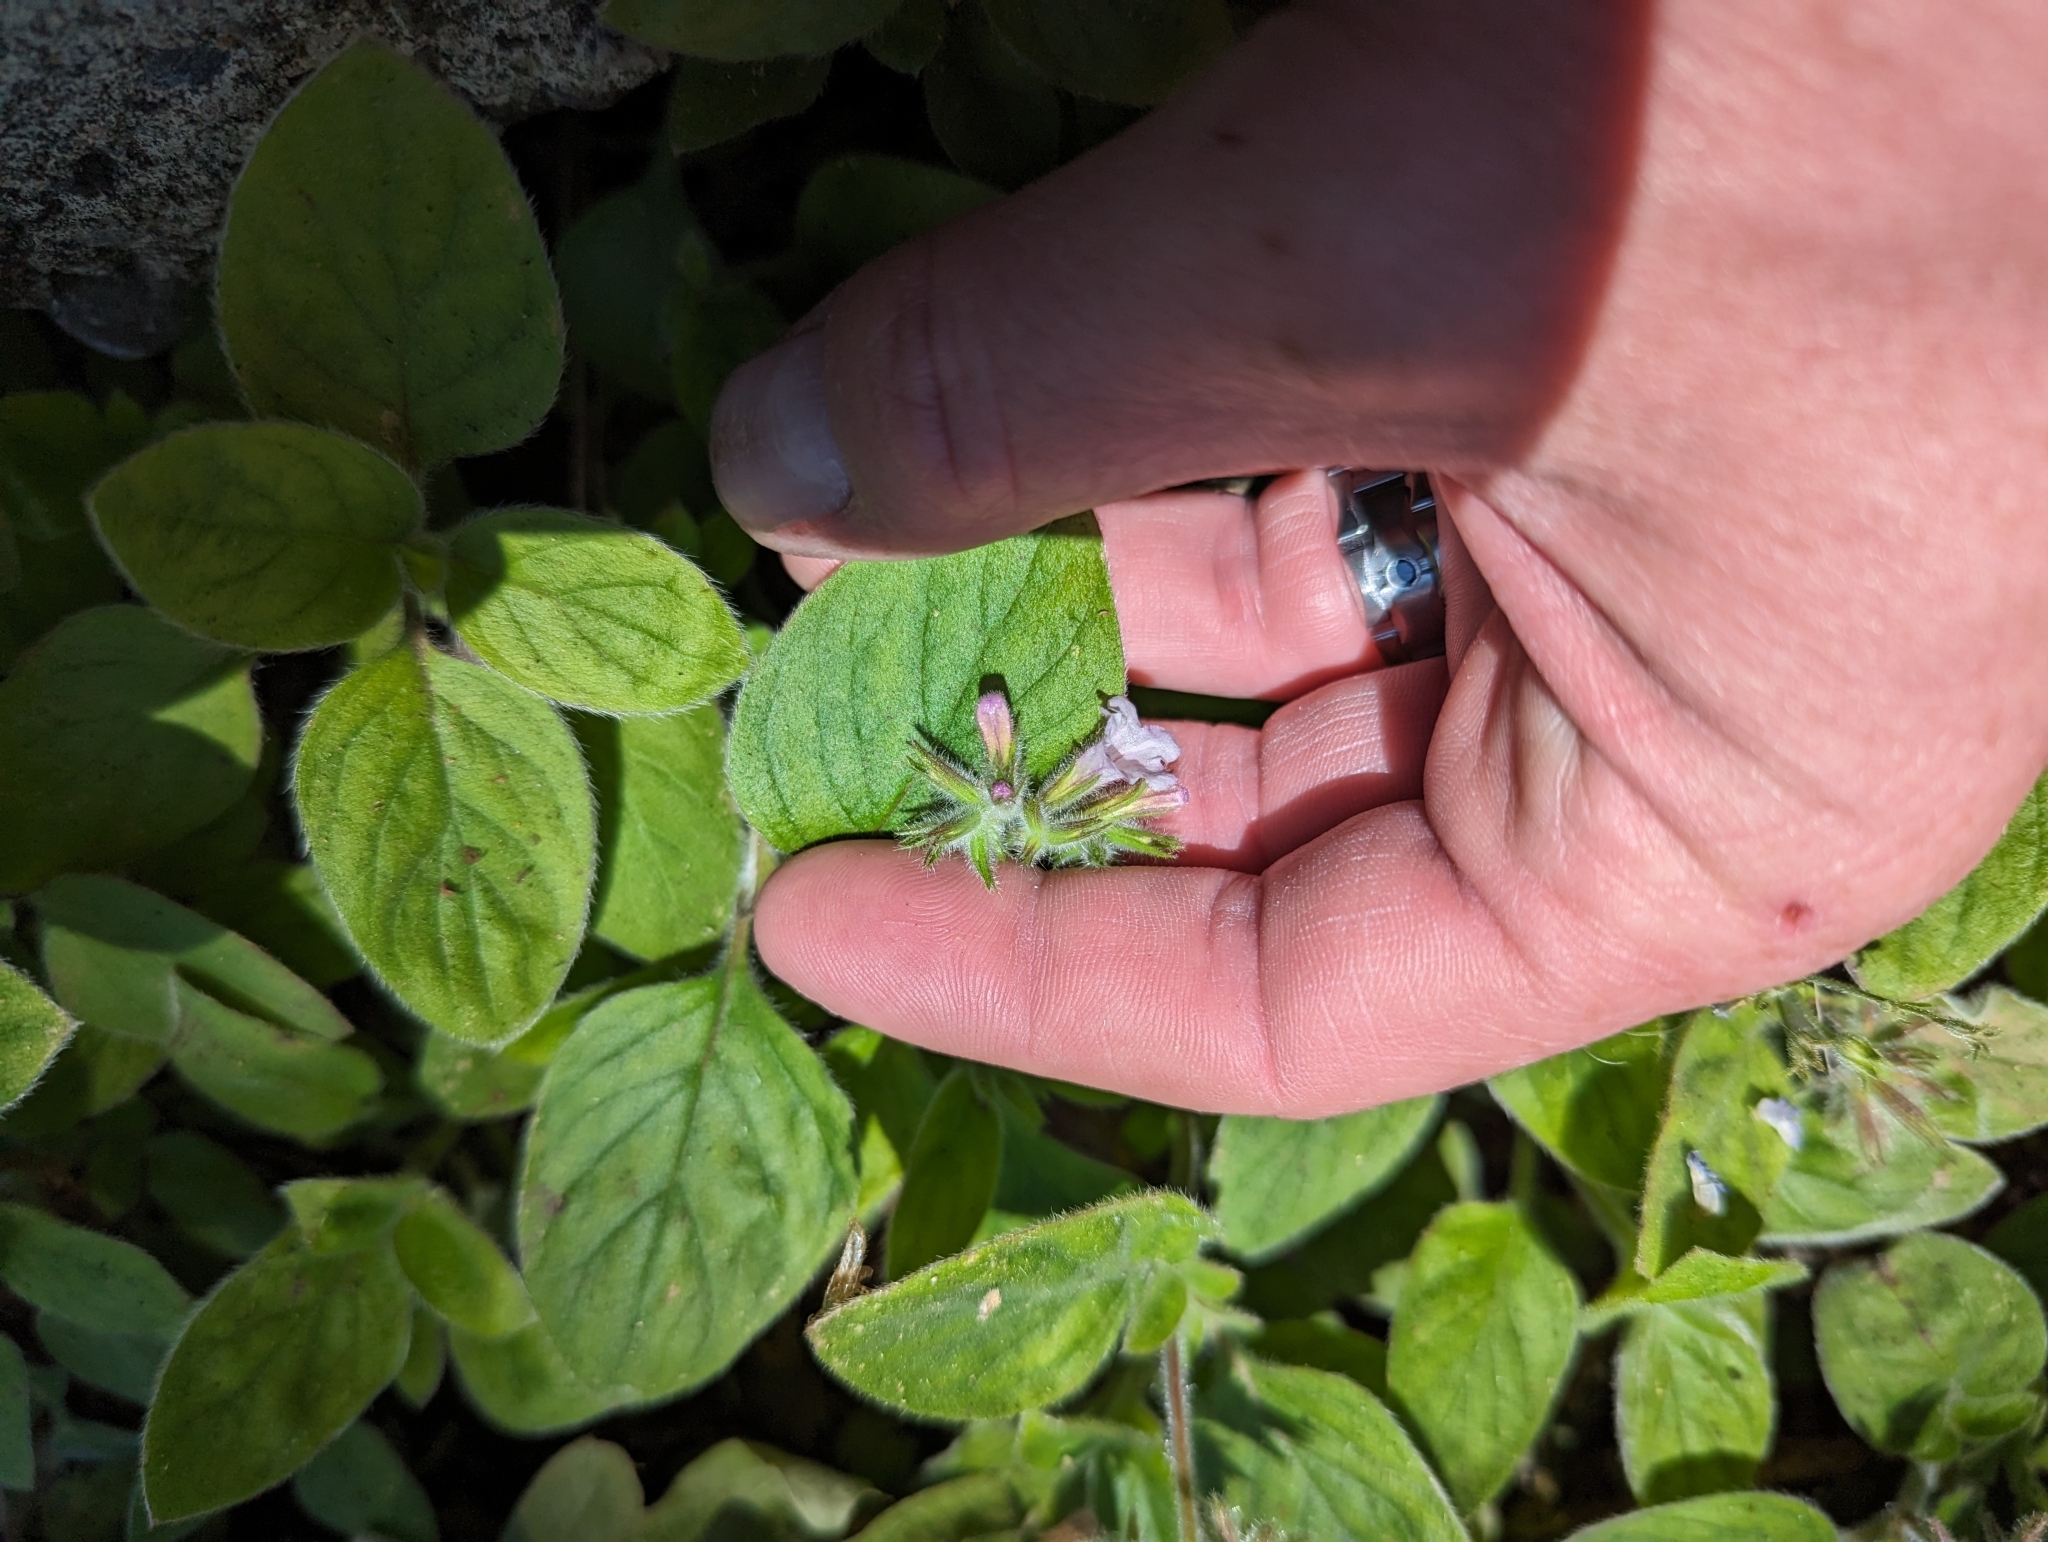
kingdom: Plantae
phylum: Tracheophyta
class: Magnoliopsida
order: Boraginales
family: Hydrophyllaceae
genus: Draperia
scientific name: Draperia systyla
